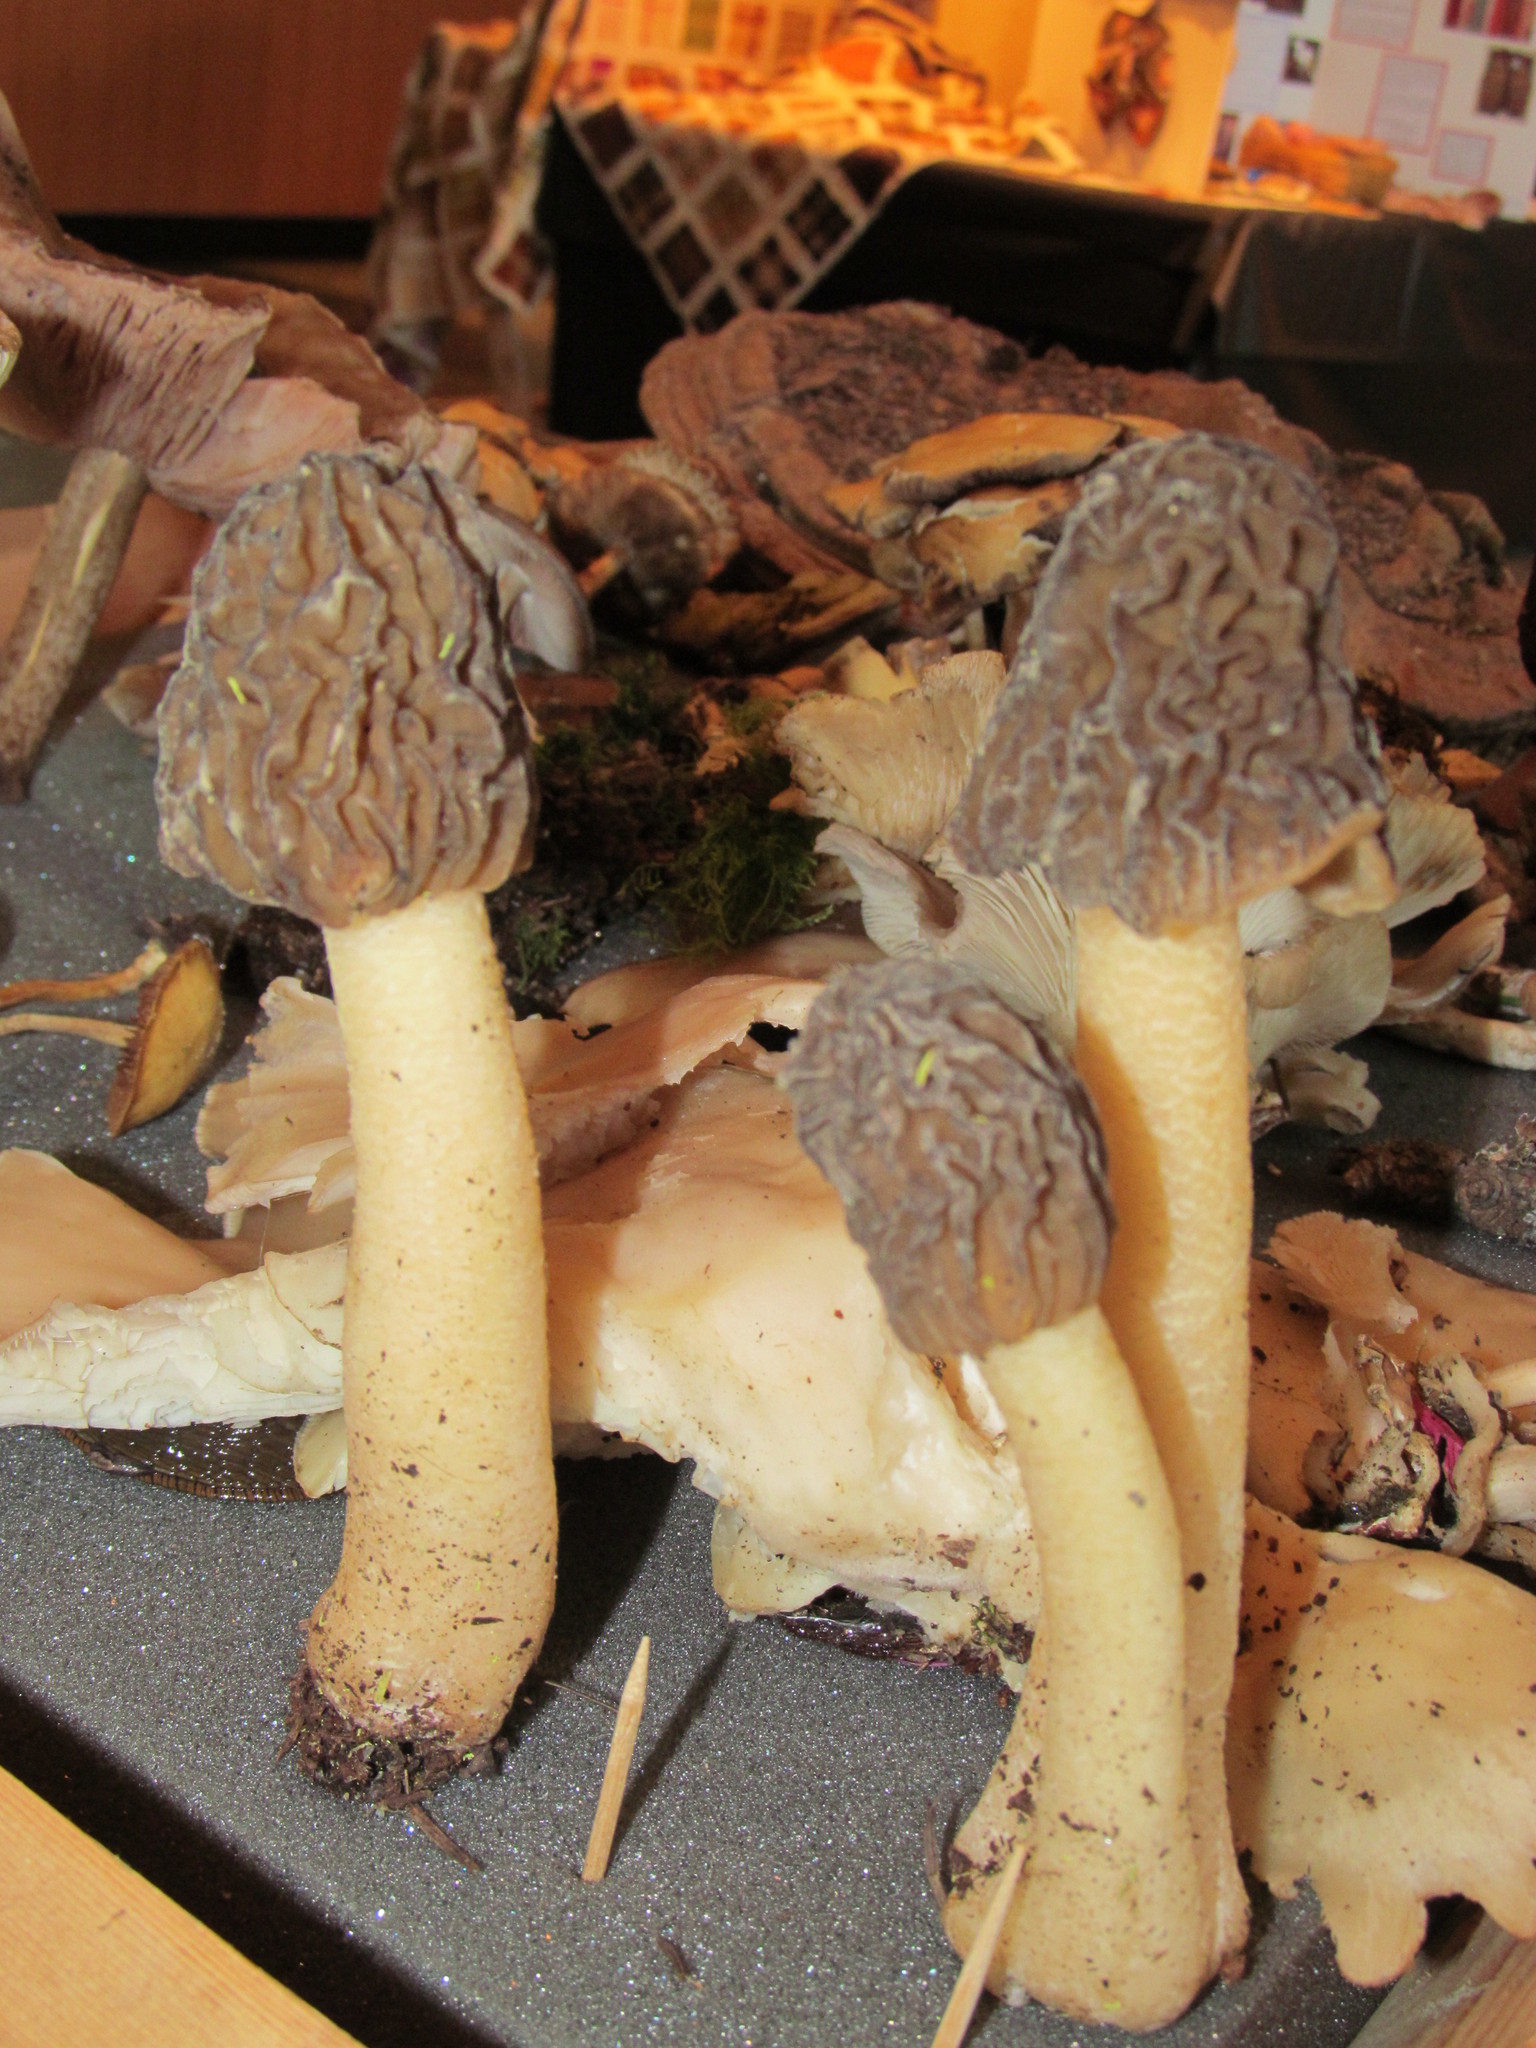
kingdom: Fungi
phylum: Ascomycota
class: Pezizomycetes
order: Pezizales
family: Morchellaceae
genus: Verpa
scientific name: Verpa bohemica
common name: Wrinkled thimble morel
